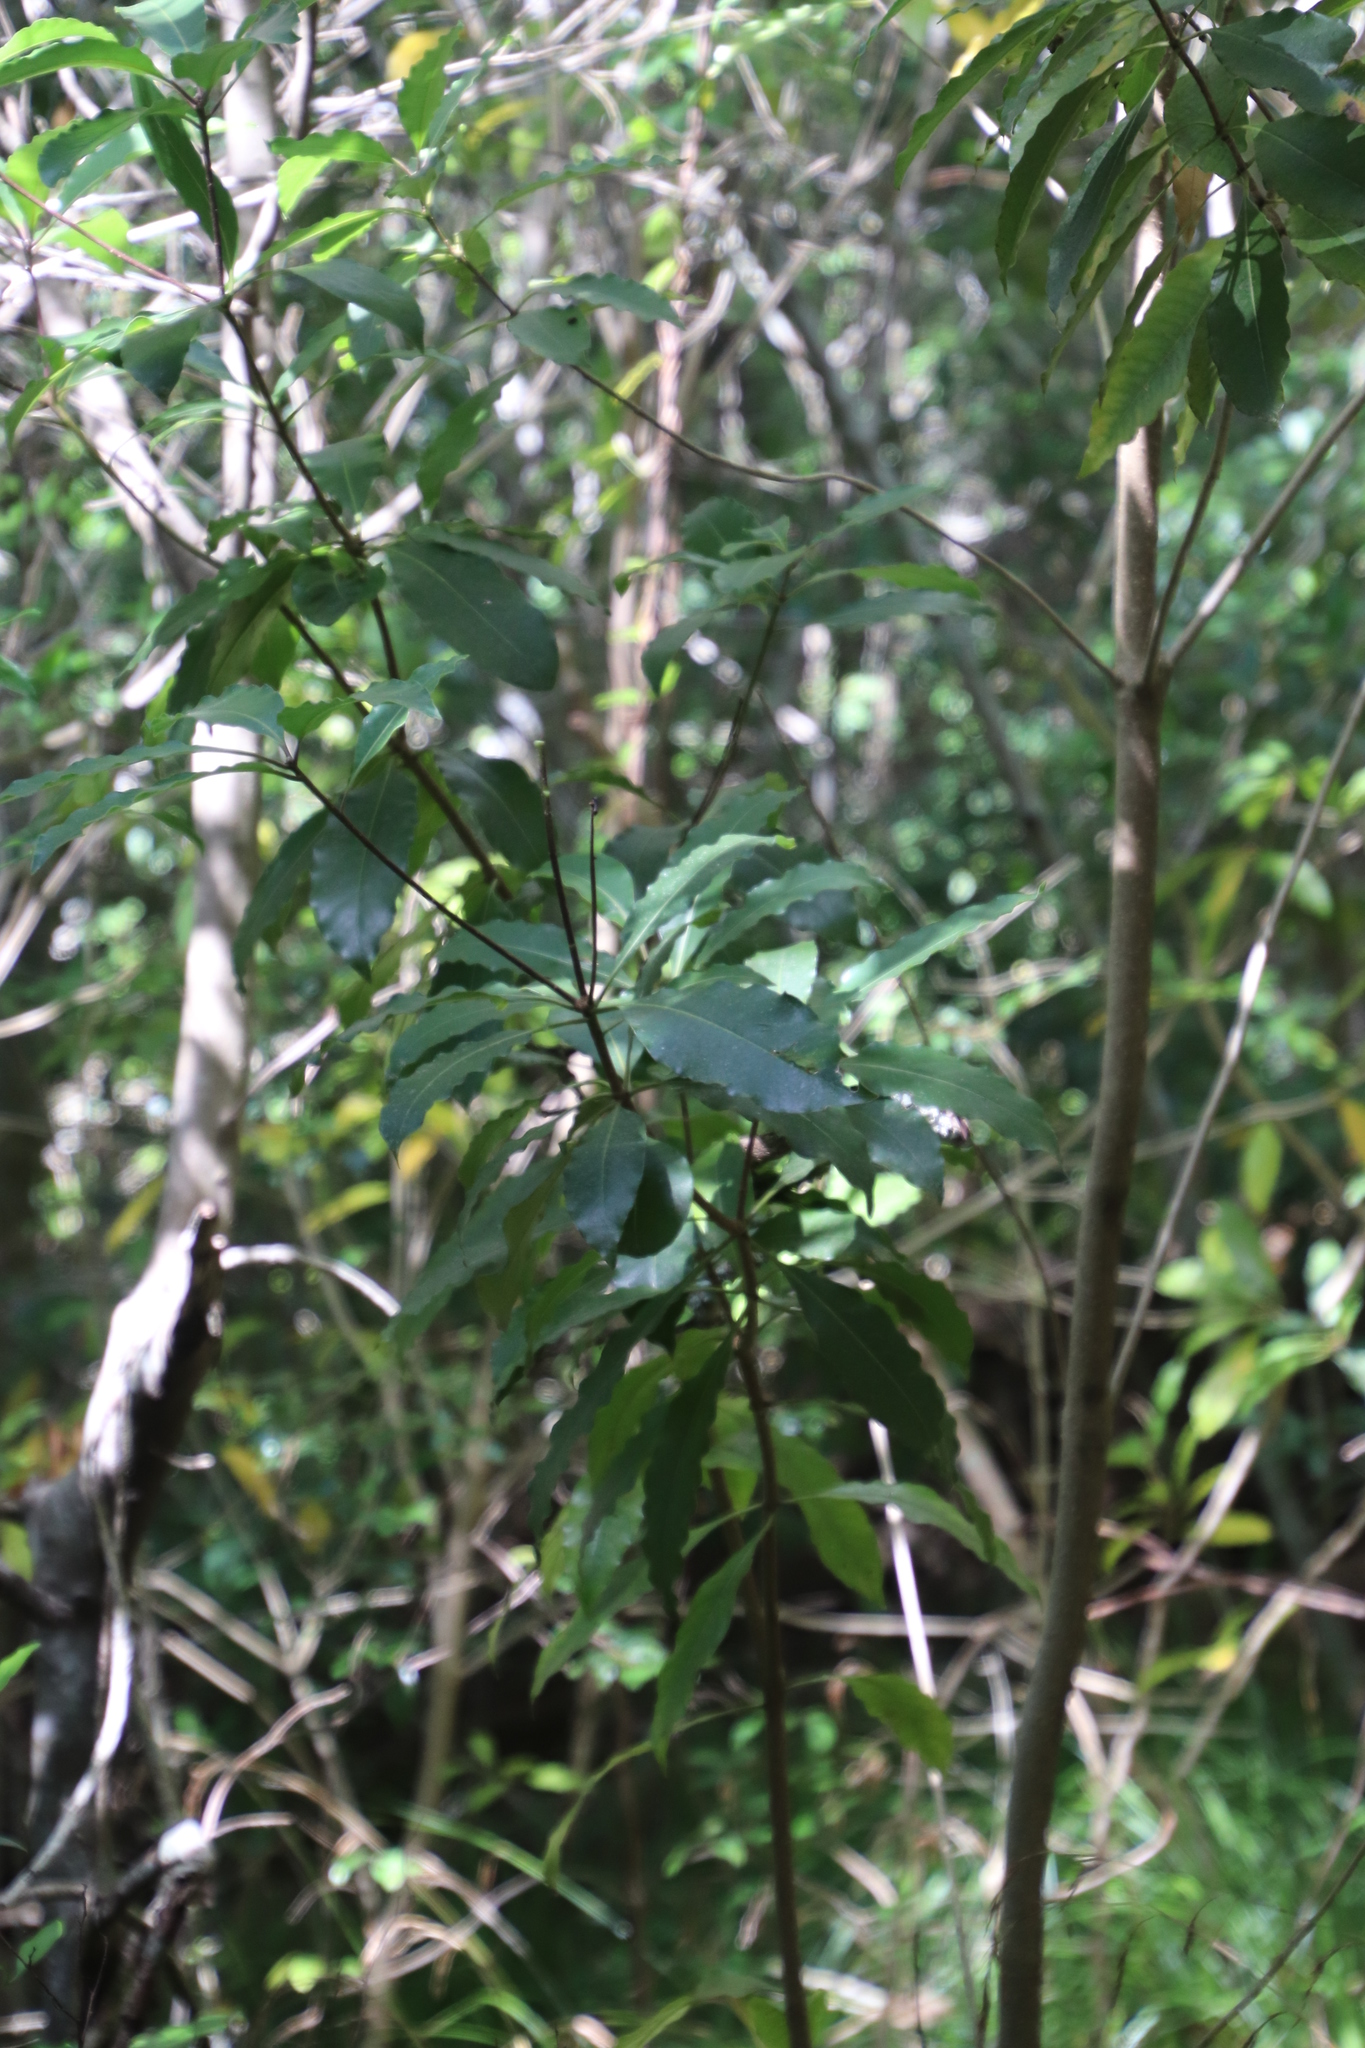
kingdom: Plantae
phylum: Tracheophyta
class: Magnoliopsida
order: Apiales
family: Pittosporaceae
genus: Pittosporum
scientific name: Pittosporum undulatum
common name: Australian cheesewood
